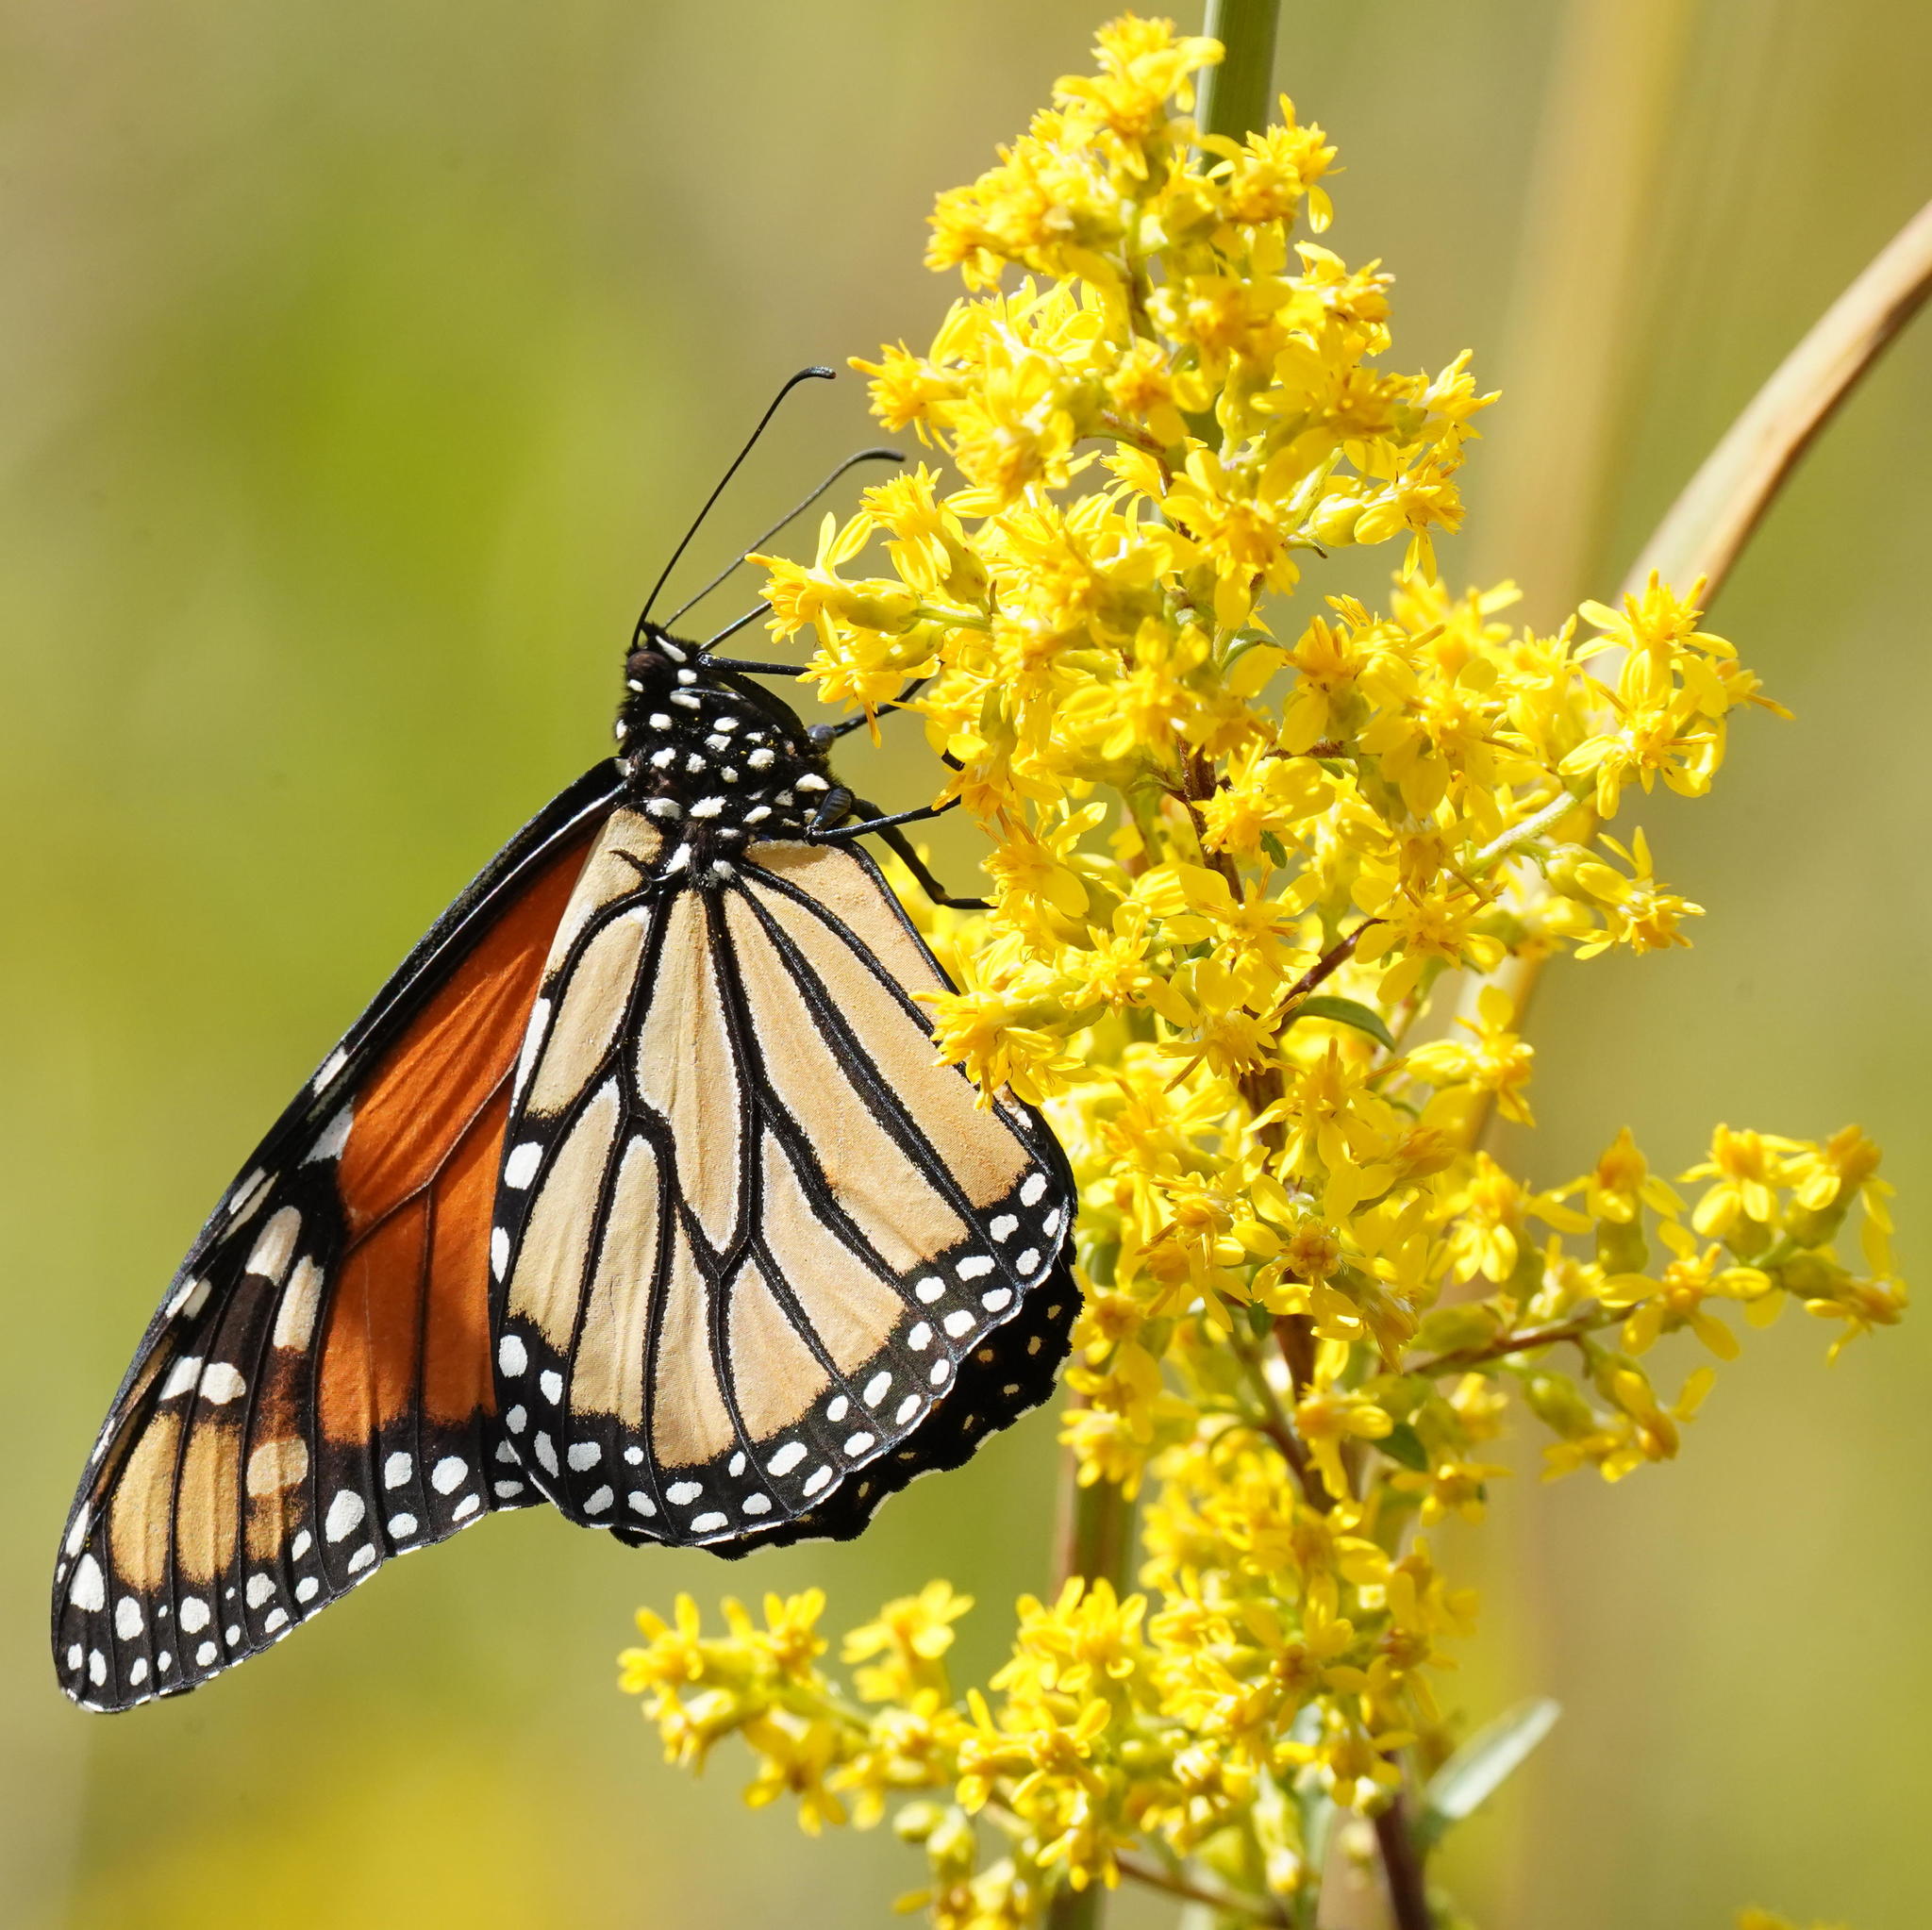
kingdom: Animalia
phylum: Arthropoda
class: Insecta
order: Lepidoptera
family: Nymphalidae
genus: Danaus
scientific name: Danaus plexippus
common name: Monarch
